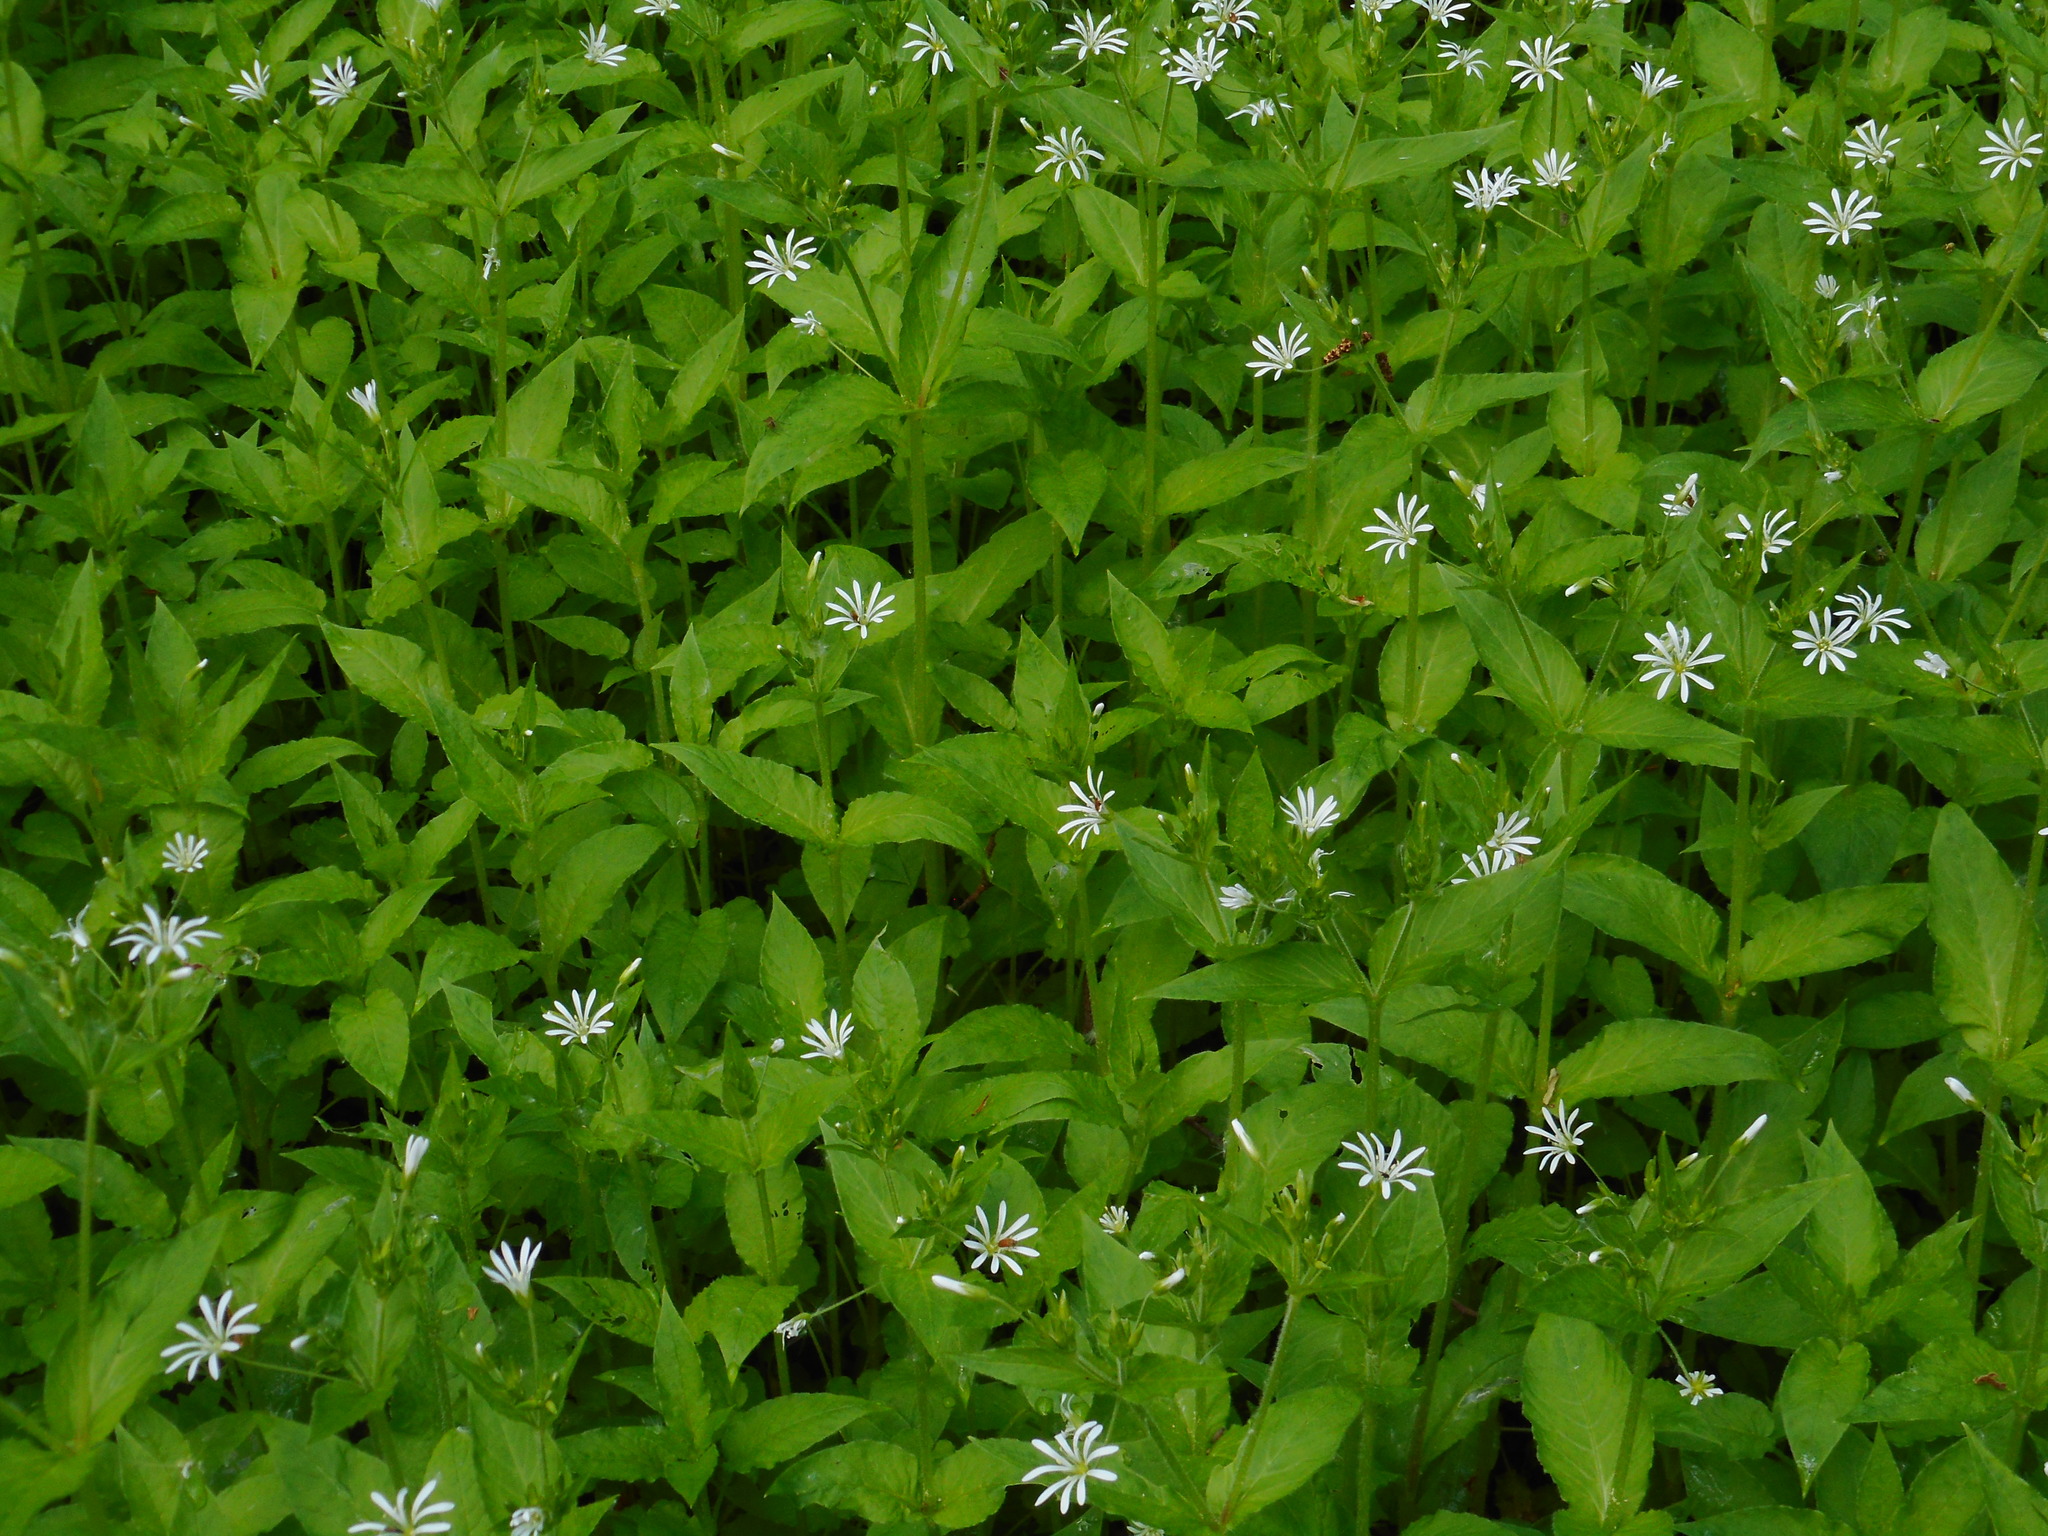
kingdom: Plantae
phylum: Tracheophyta
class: Magnoliopsida
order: Caryophyllales
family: Caryophyllaceae
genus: Stellaria
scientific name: Stellaria nemorum
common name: Wood stitchwort
